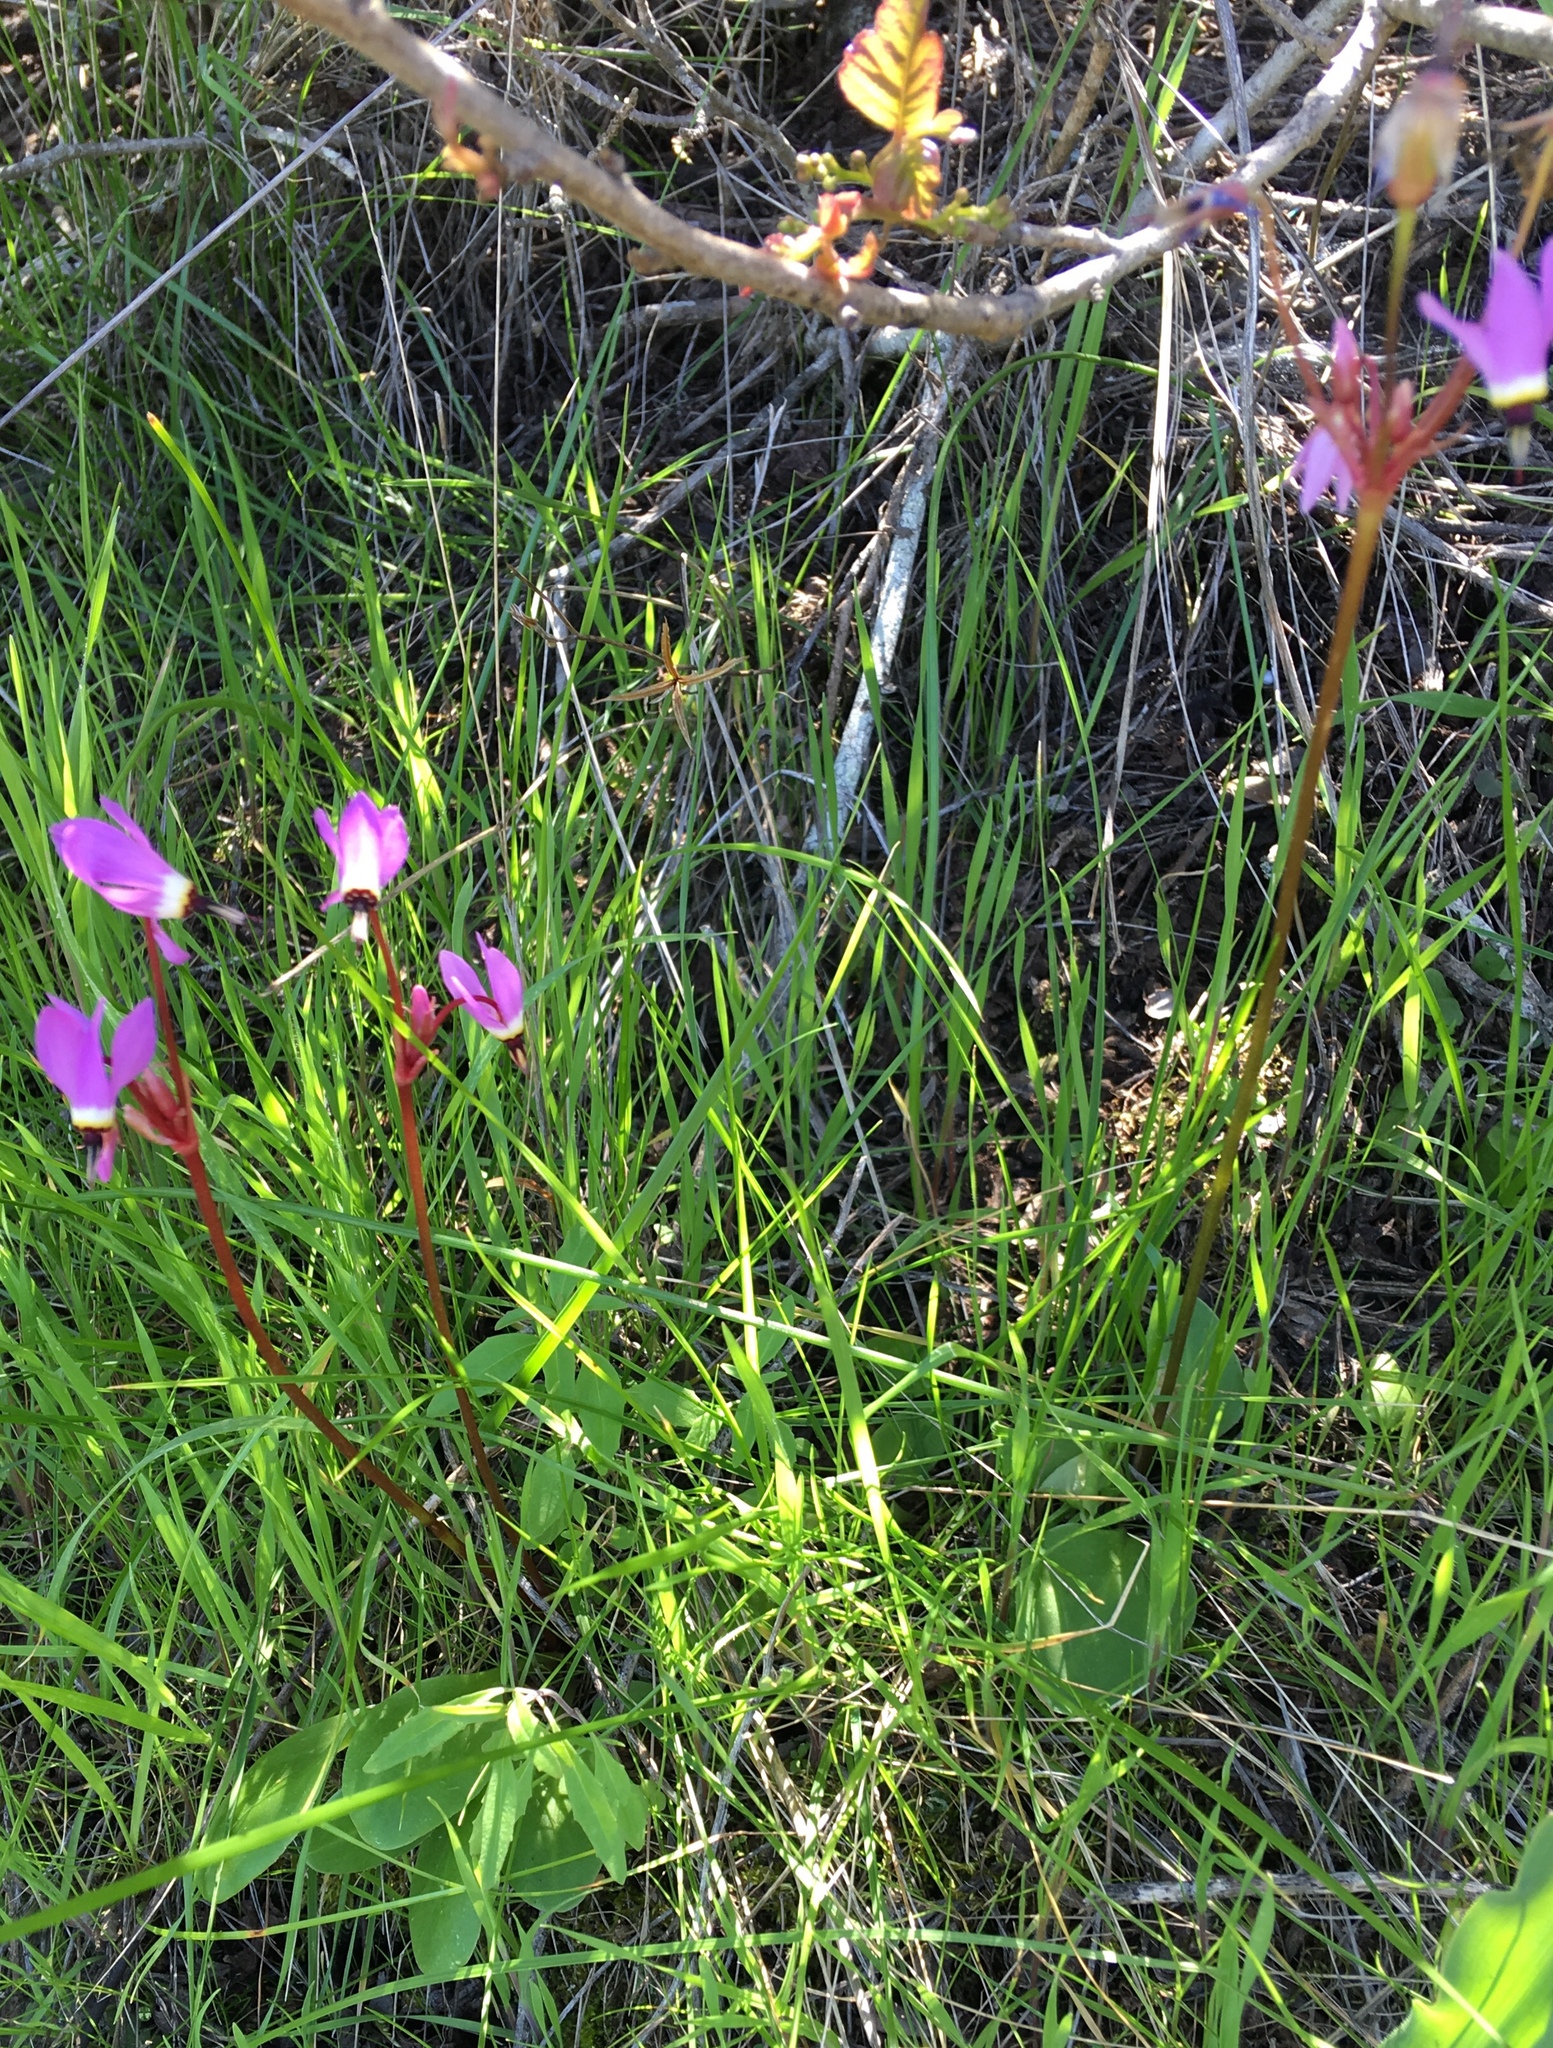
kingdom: Plantae
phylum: Tracheophyta
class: Magnoliopsida
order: Ericales
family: Primulaceae
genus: Dodecatheon
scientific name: Dodecatheon hendersonii
